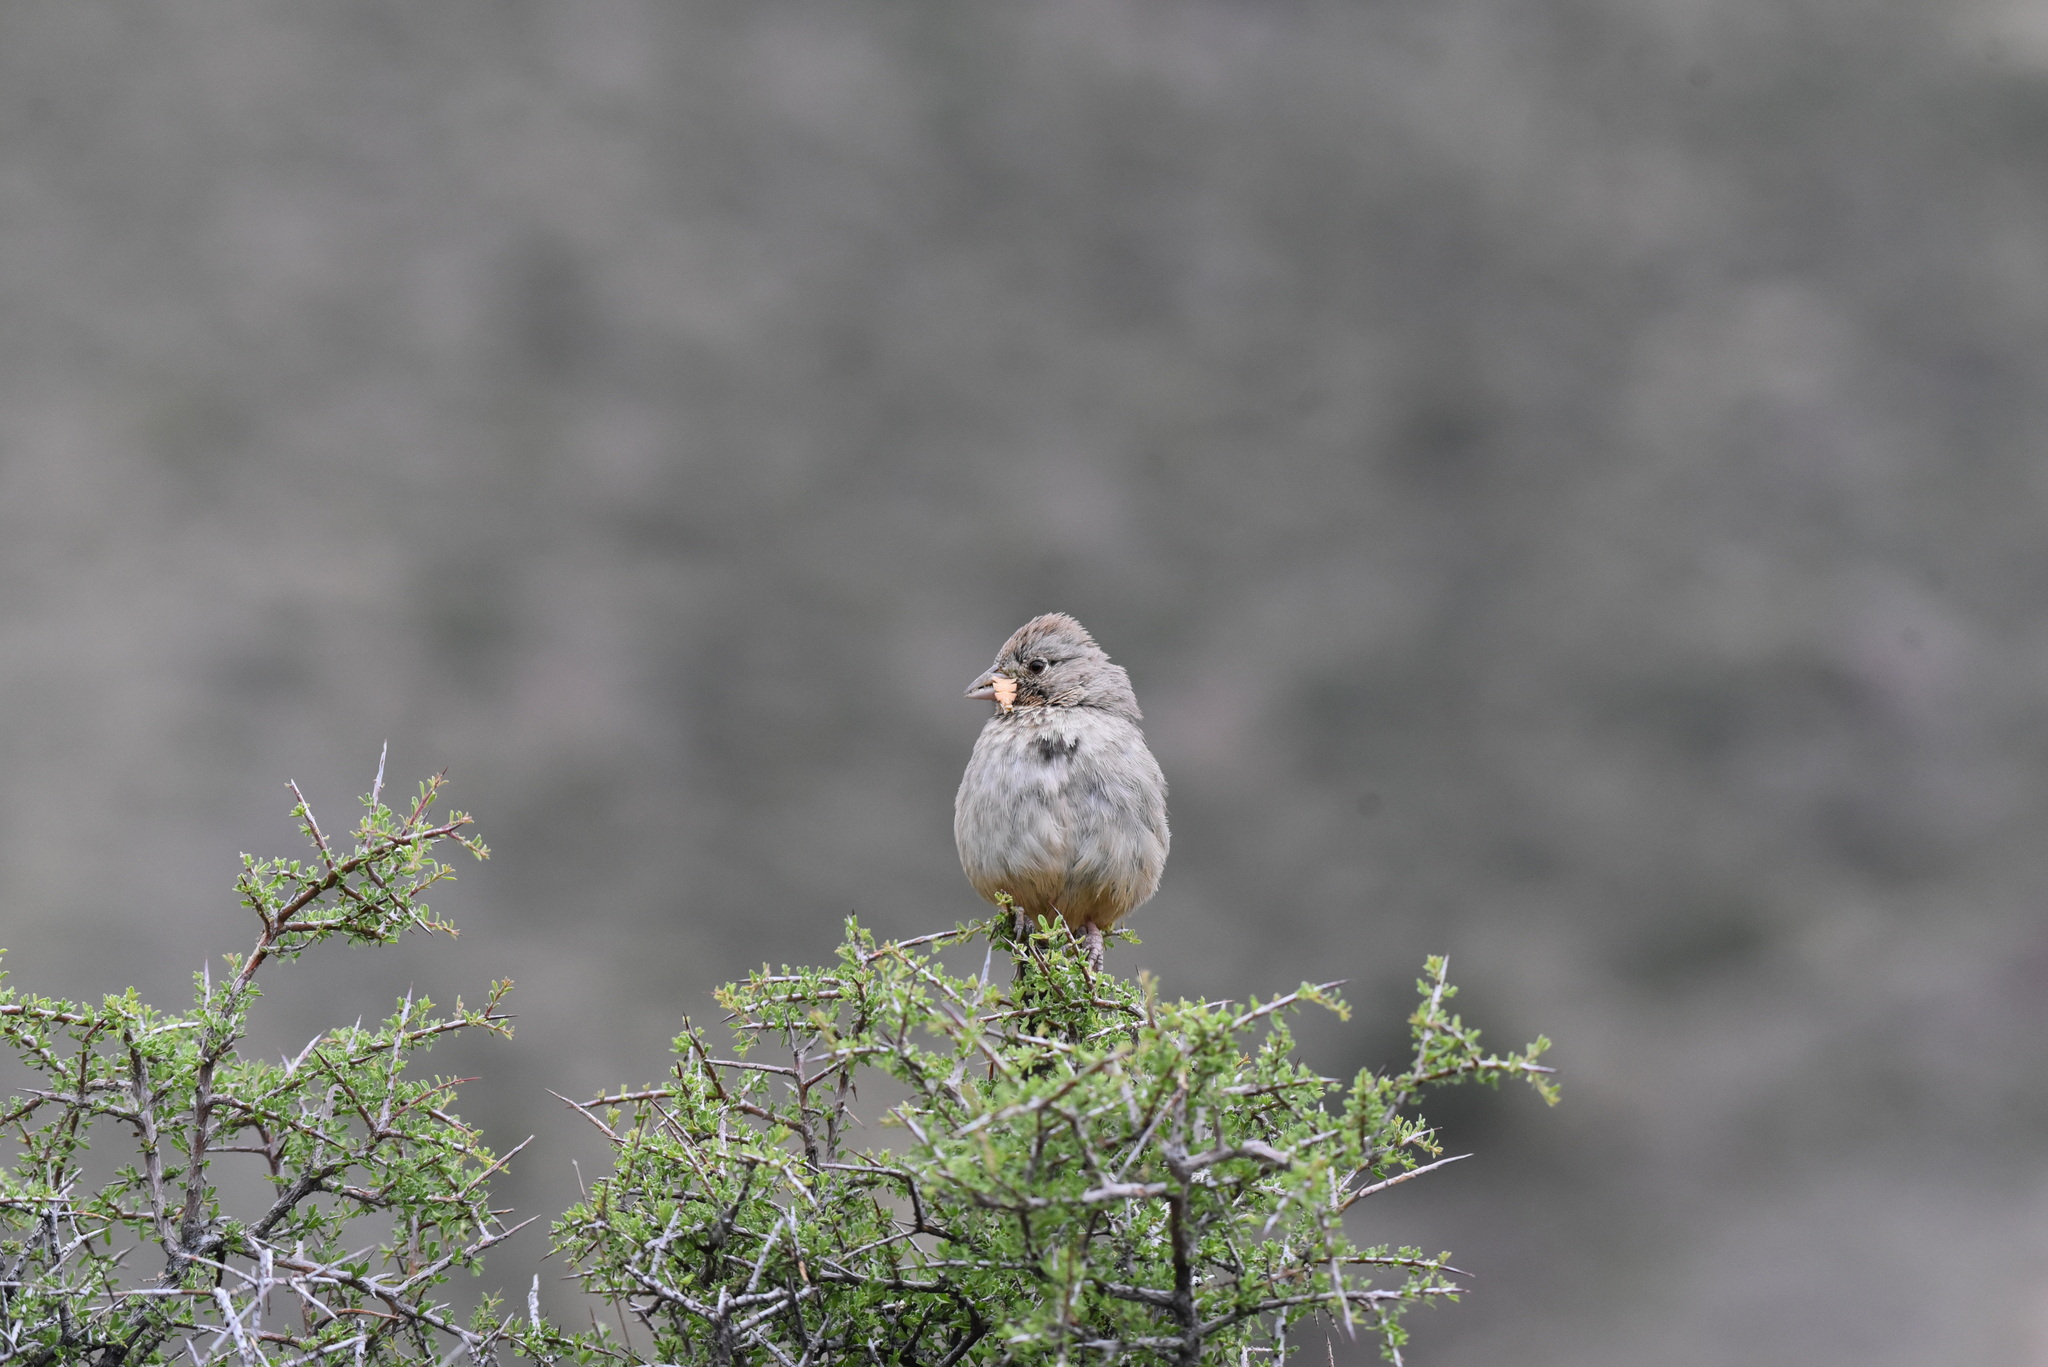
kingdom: Animalia
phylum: Chordata
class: Aves
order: Passeriformes
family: Passerellidae
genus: Melozone
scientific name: Melozone fusca
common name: Canyon towhee
